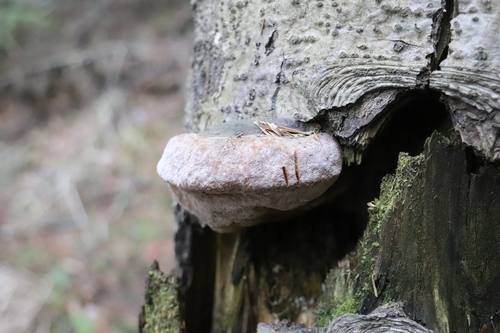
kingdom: Fungi
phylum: Basidiomycota
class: Agaricomycetes
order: Hymenochaetales
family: Hymenochaetaceae
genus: Phellinus
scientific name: Phellinus hartigii
